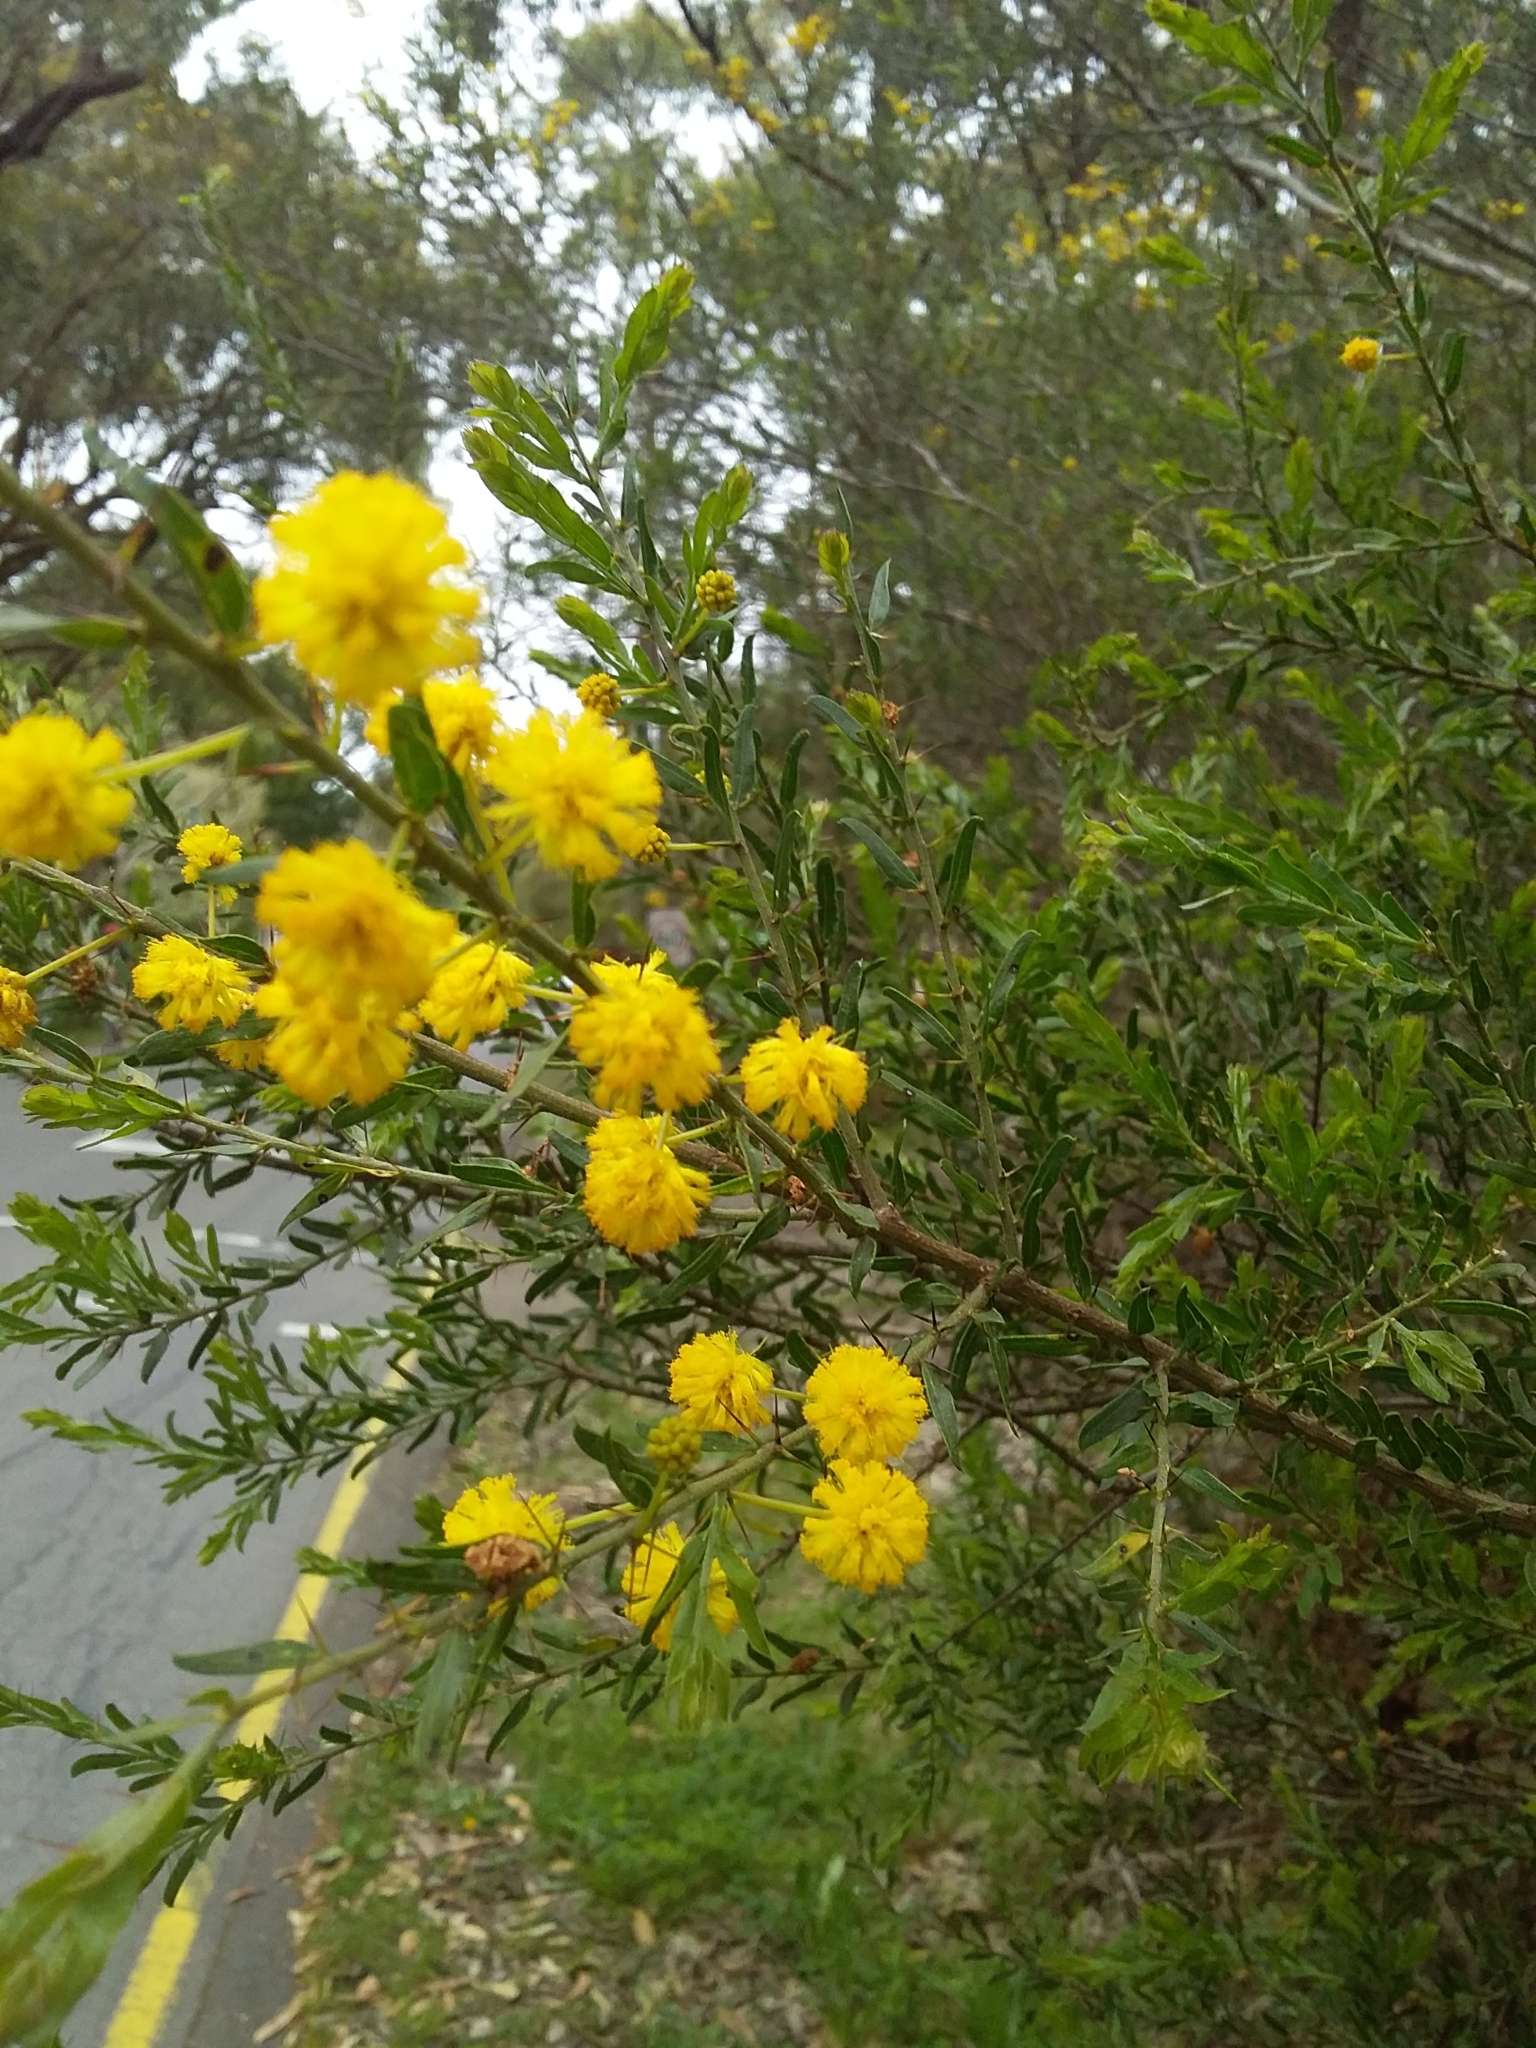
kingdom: Plantae
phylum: Tracheophyta
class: Magnoliopsida
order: Fabales
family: Fabaceae
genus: Acacia
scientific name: Acacia paradoxa
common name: Paradox acacia
